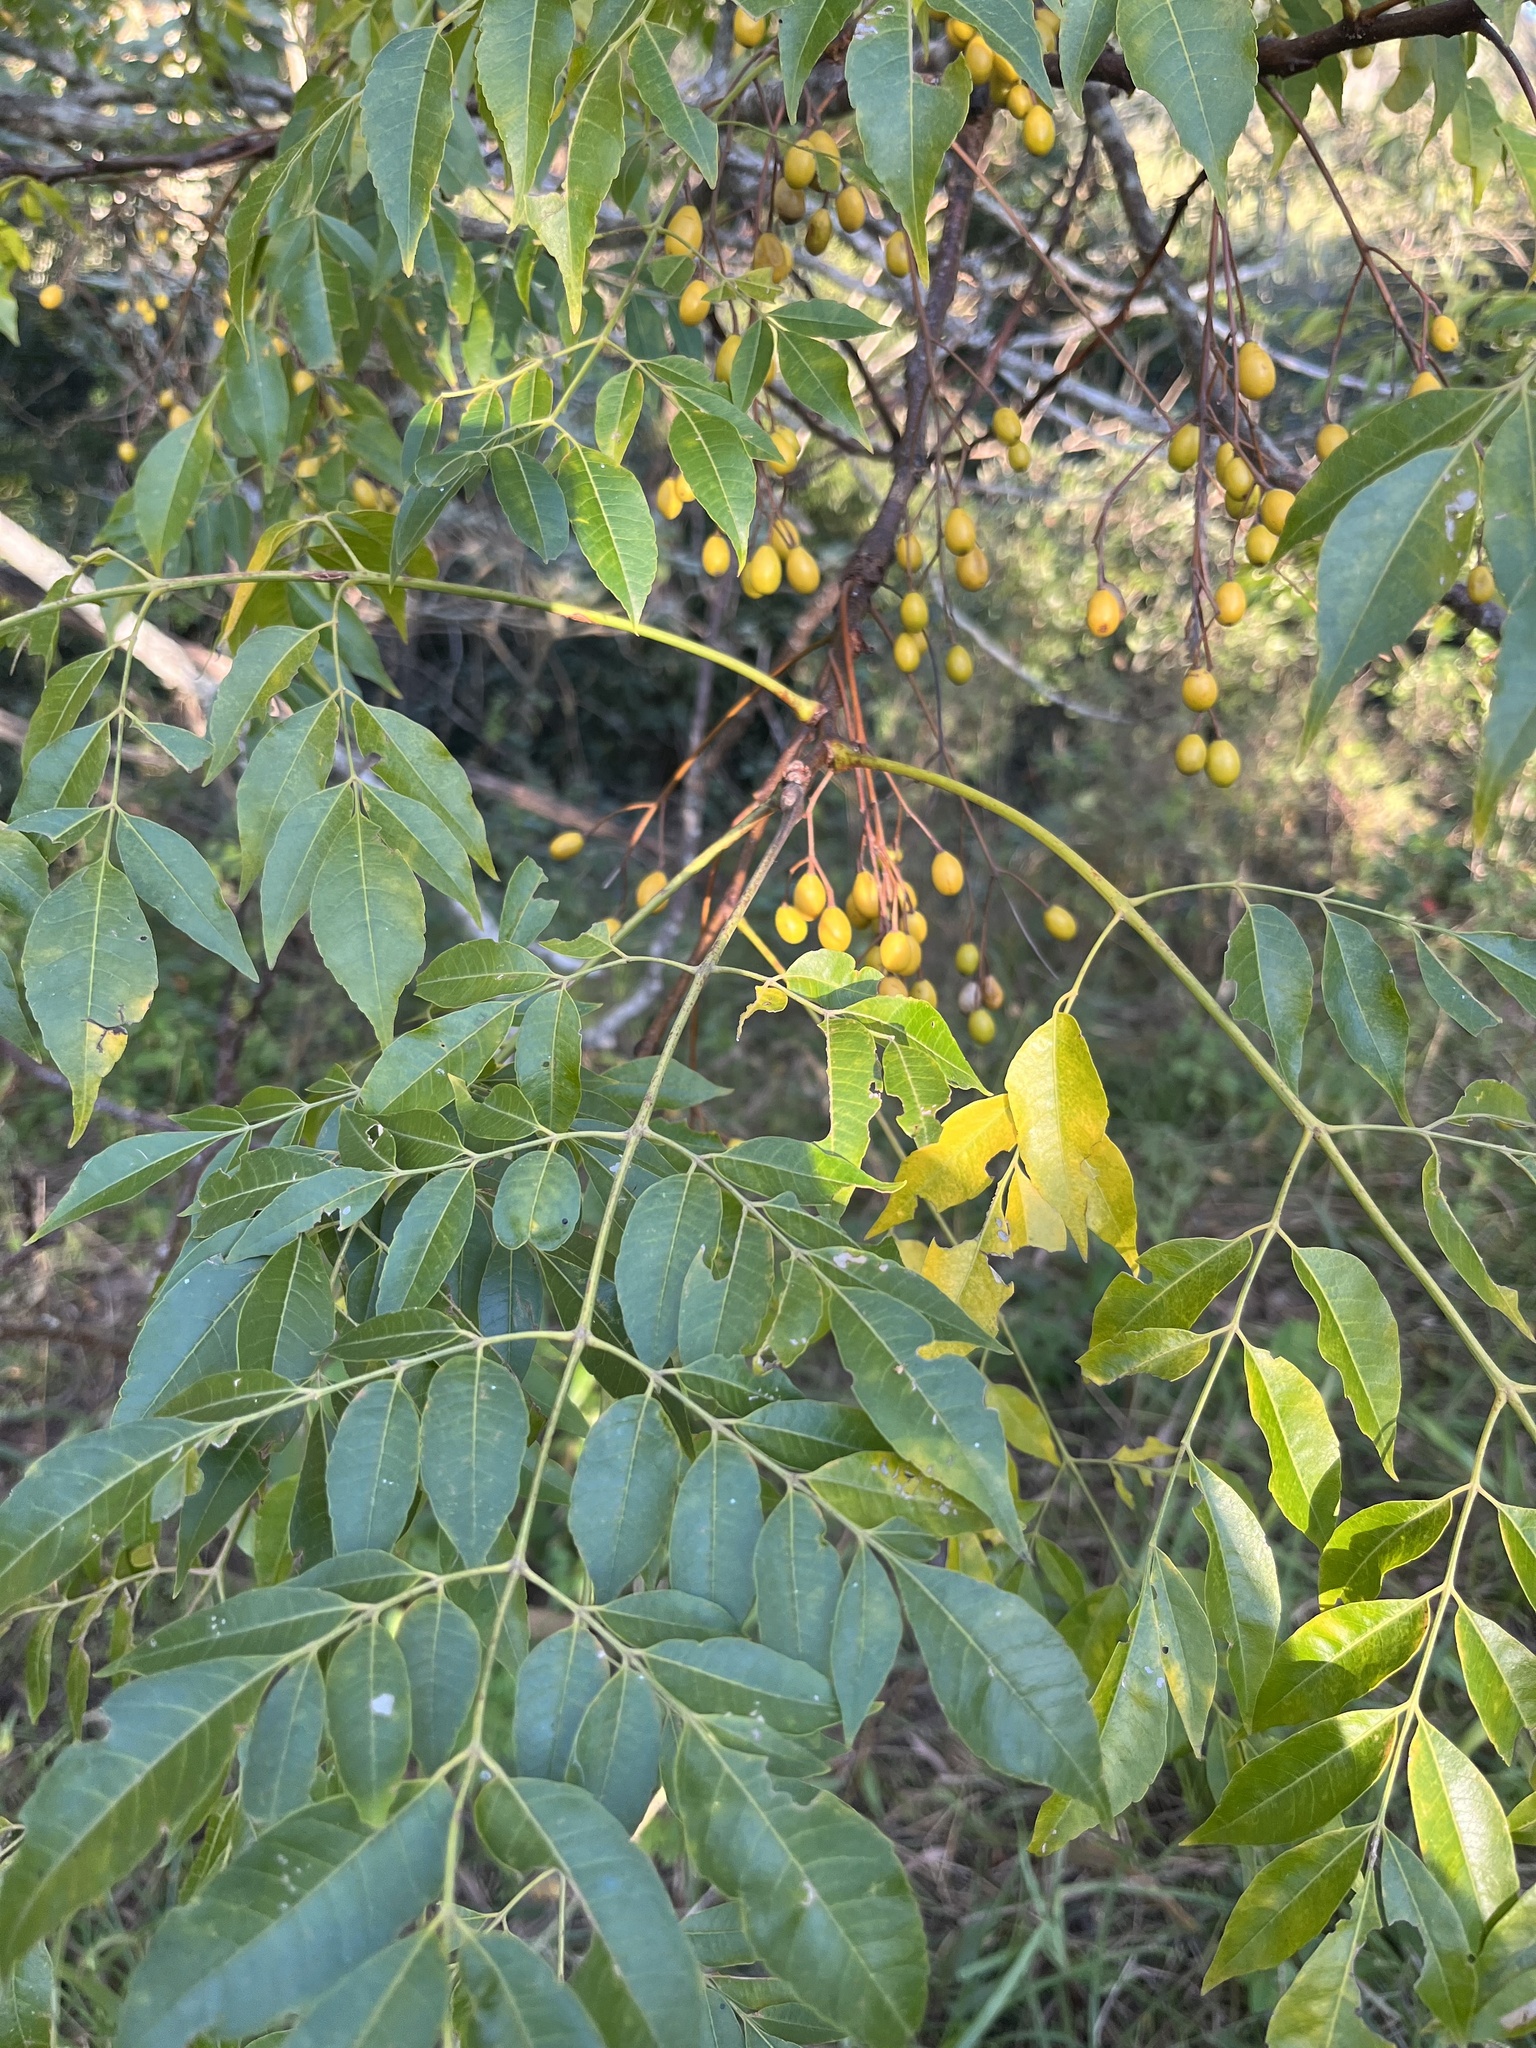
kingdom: Plantae
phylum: Tracheophyta
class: Magnoliopsida
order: Sapindales
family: Meliaceae
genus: Melia
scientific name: Melia azedarach
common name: Chinaberrytree
